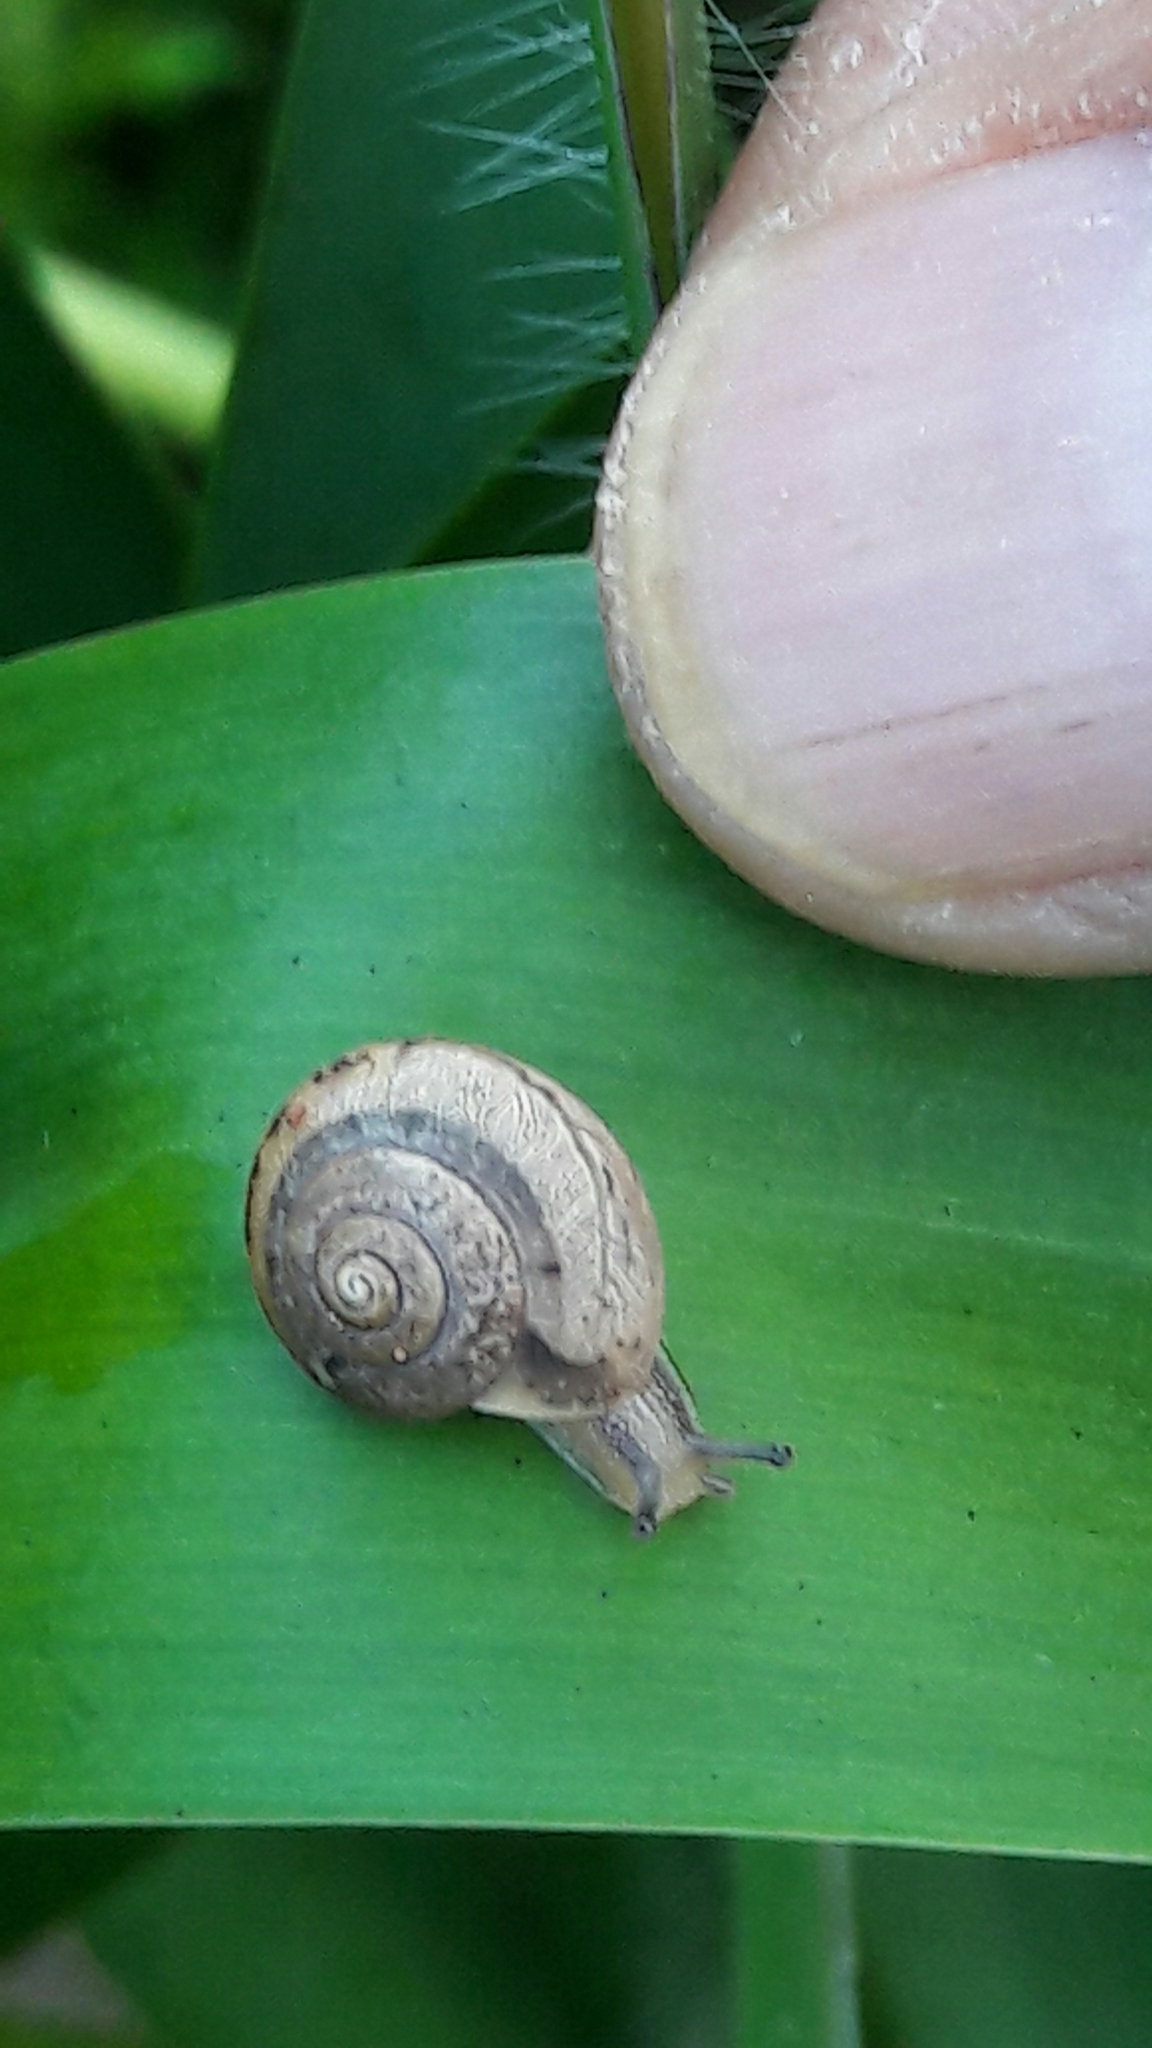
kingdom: Animalia
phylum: Mollusca
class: Gastropoda
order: Stylommatophora
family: Camaenidae
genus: Bradybaena
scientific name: Bradybaena similaris
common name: Asian trampsnail
